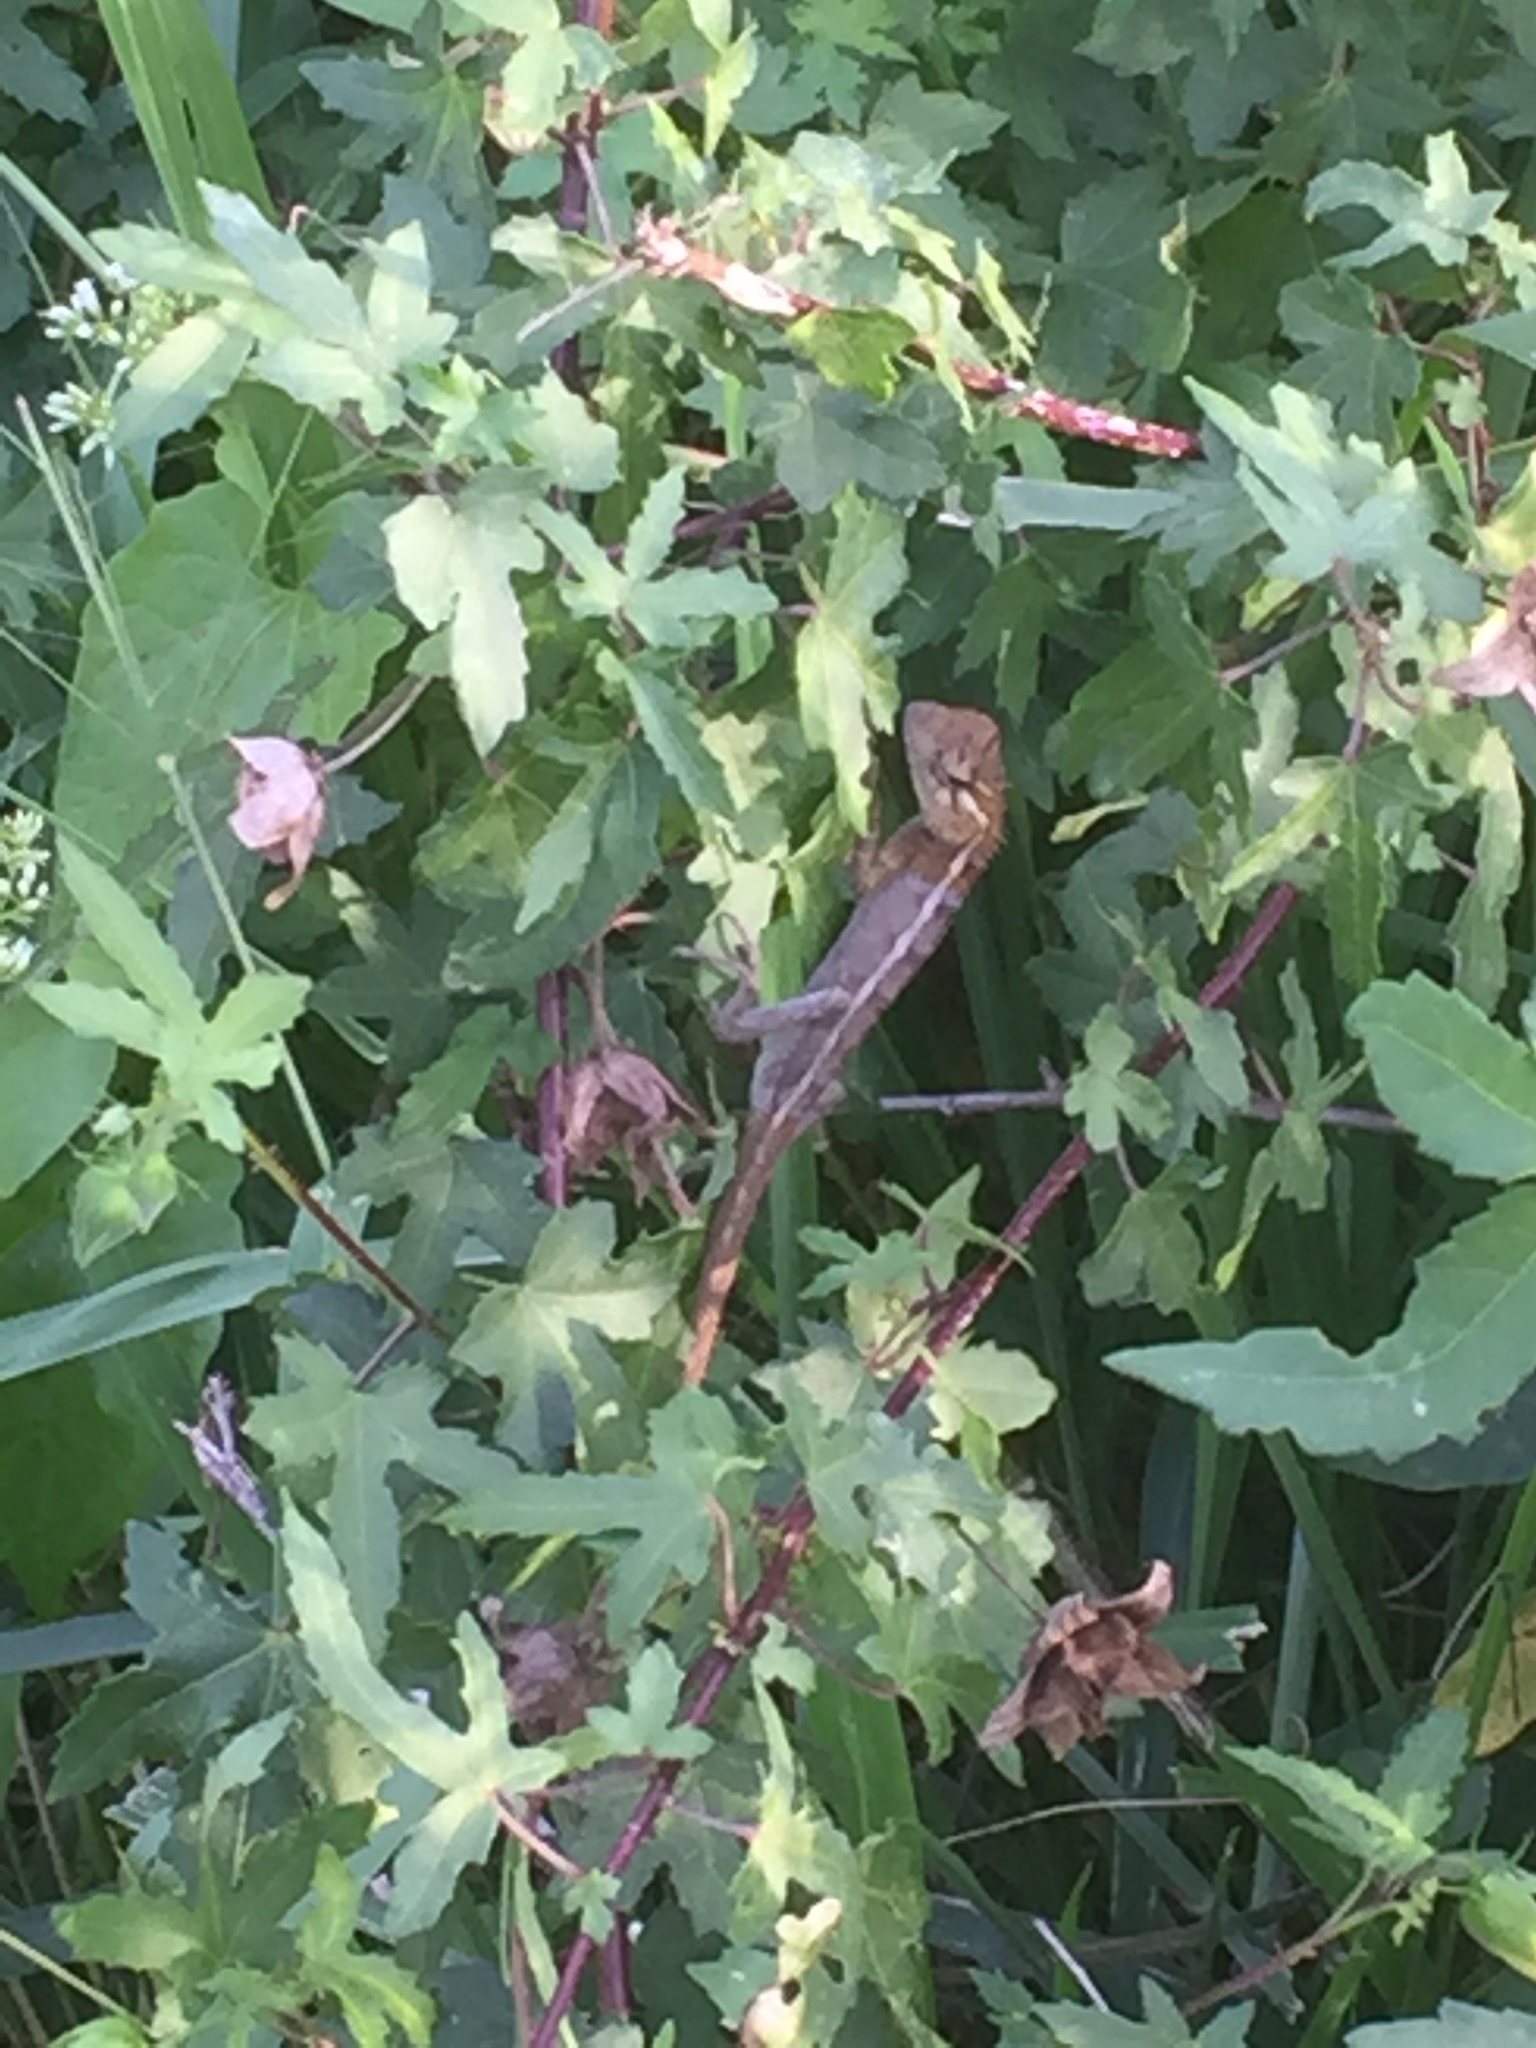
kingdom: Animalia
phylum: Chordata
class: Squamata
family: Agamidae
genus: Calotes
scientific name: Calotes versicolor
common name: Oriental garden lizard
